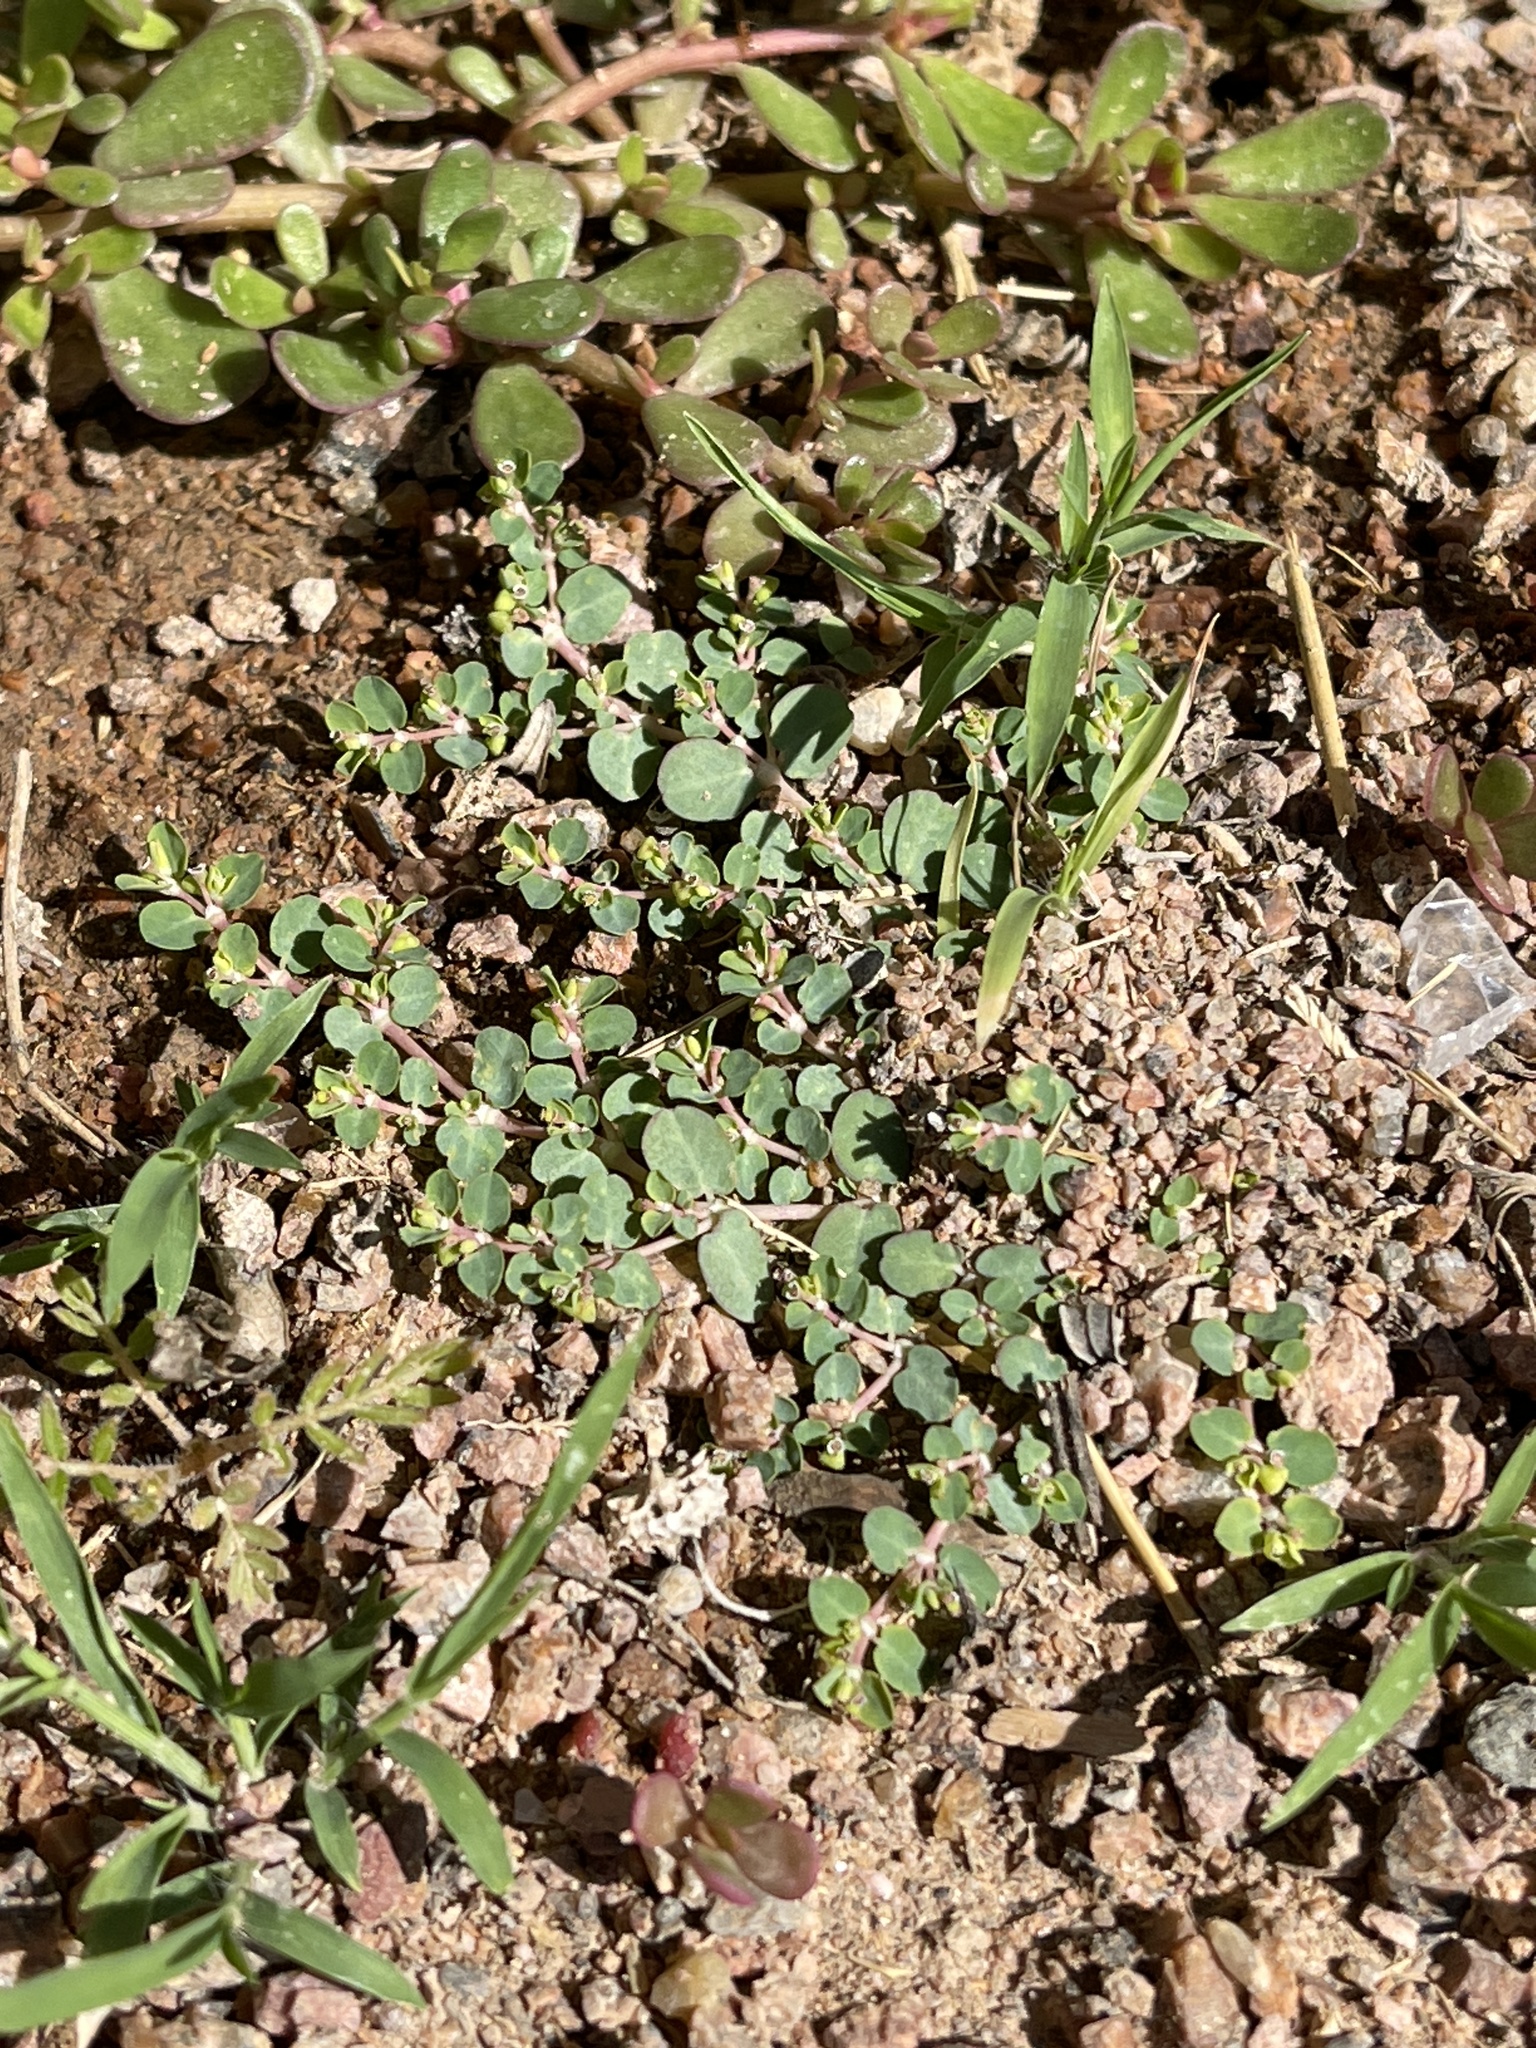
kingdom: Plantae
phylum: Tracheophyta
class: Magnoliopsida
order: Malpighiales
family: Euphorbiaceae
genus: Euphorbia
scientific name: Euphorbia serpens
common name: Matted sandmat
